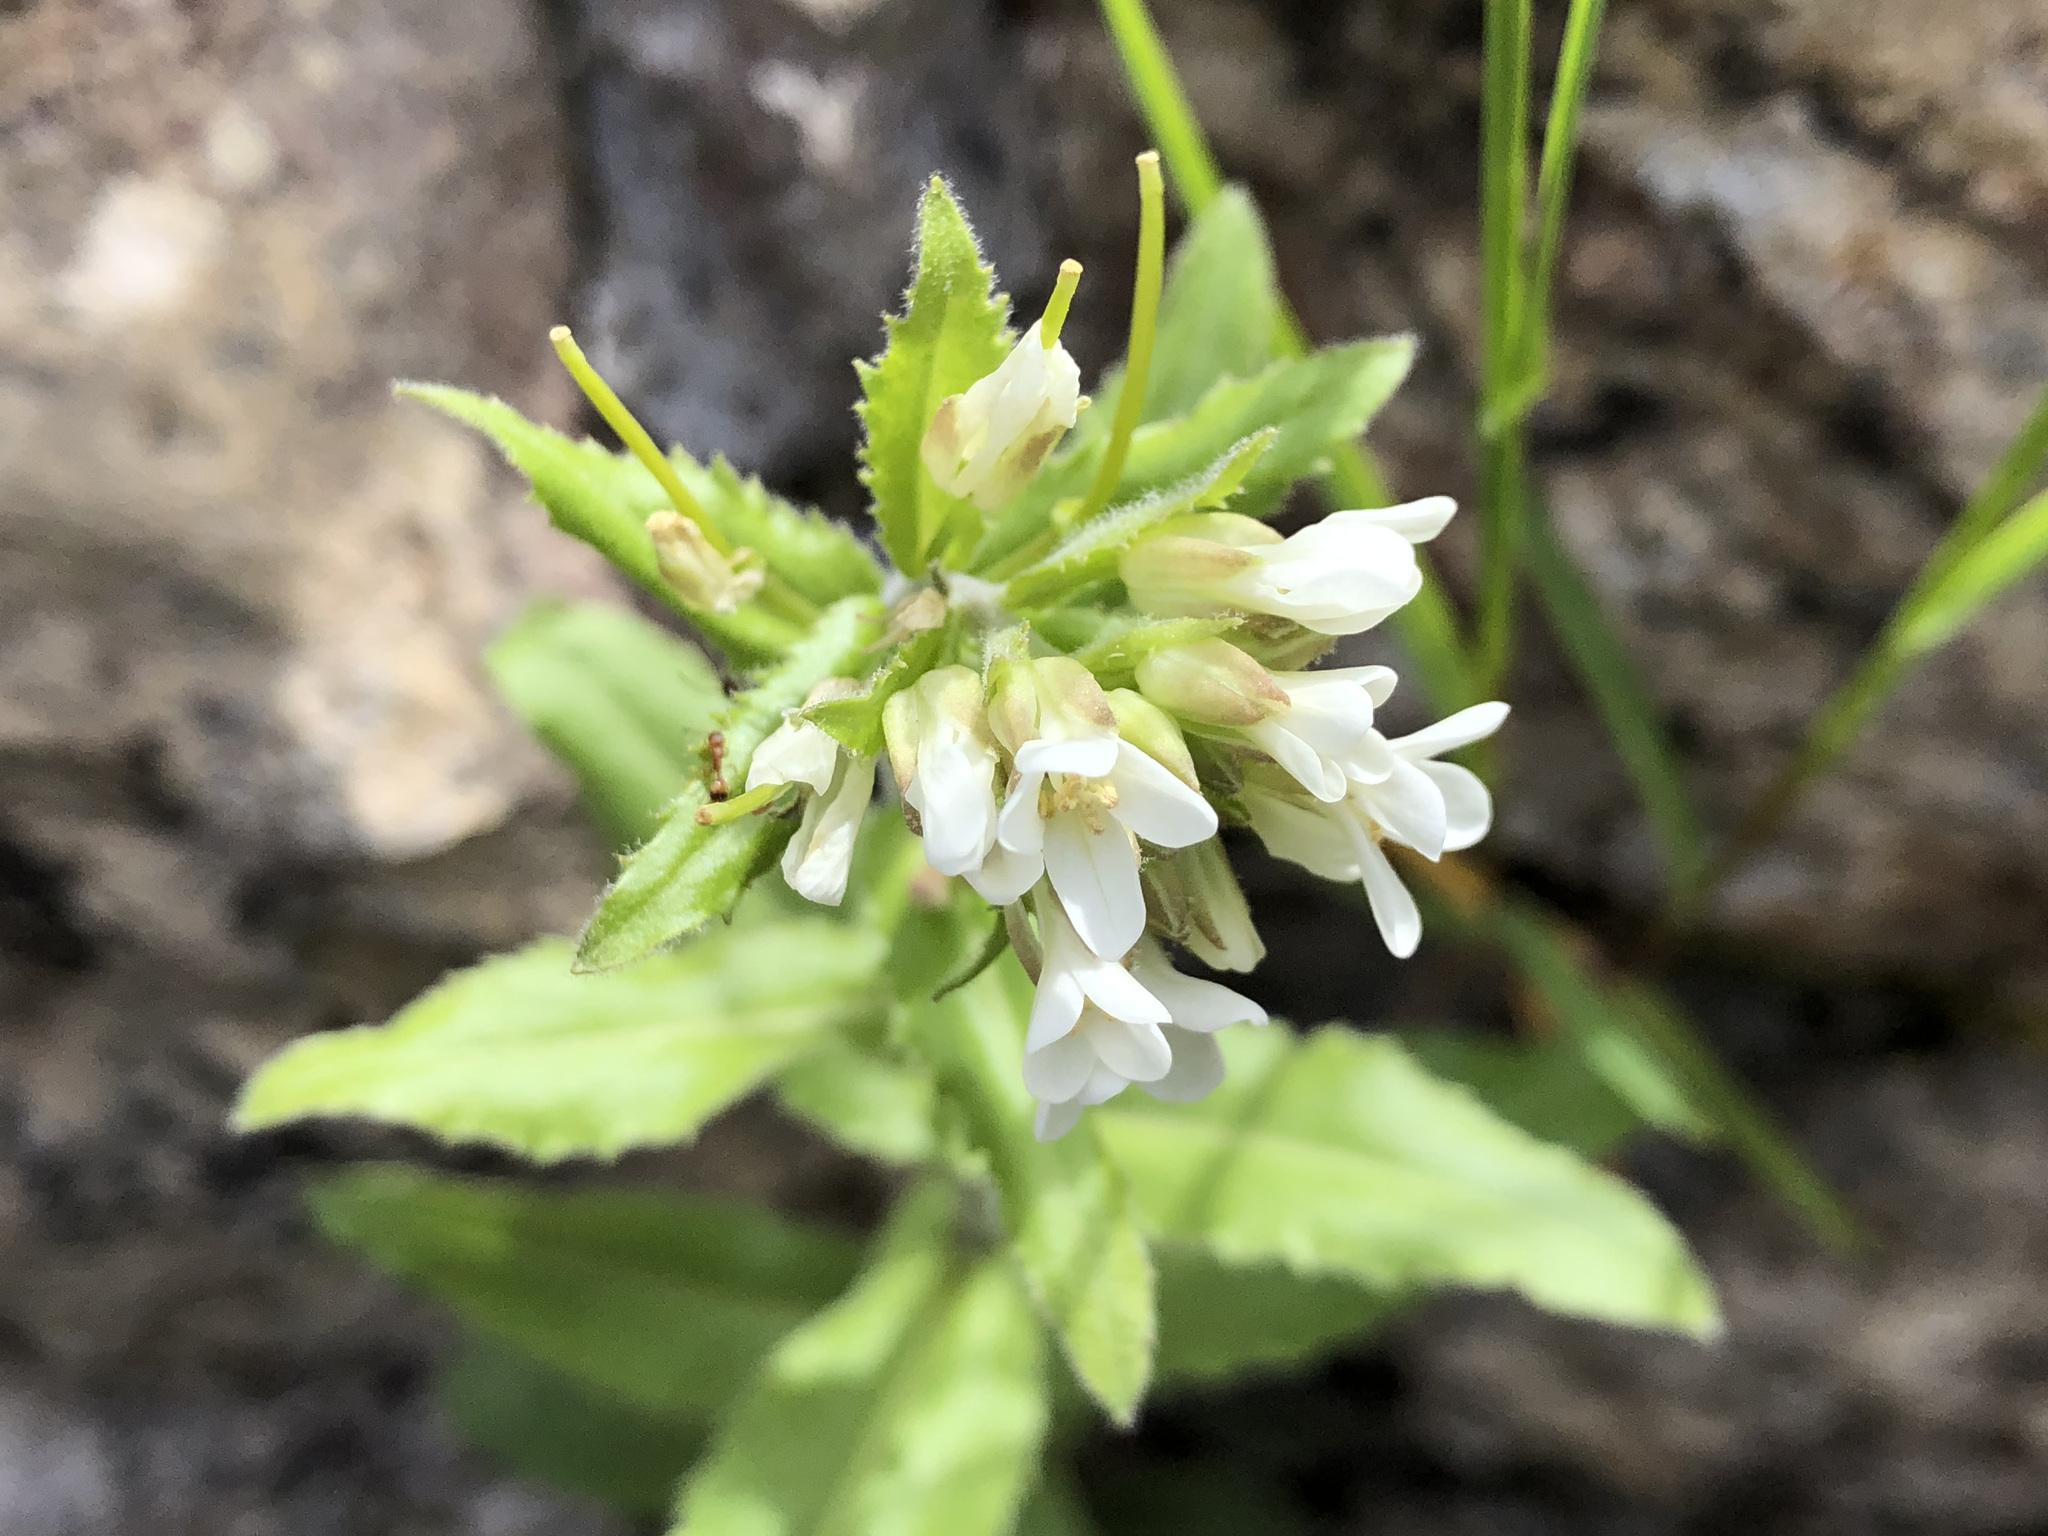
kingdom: Plantae
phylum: Tracheophyta
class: Magnoliopsida
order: Brassicales
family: Brassicaceae
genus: Pseudoturritis
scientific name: Pseudoturritis turrita
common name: Tower cress
